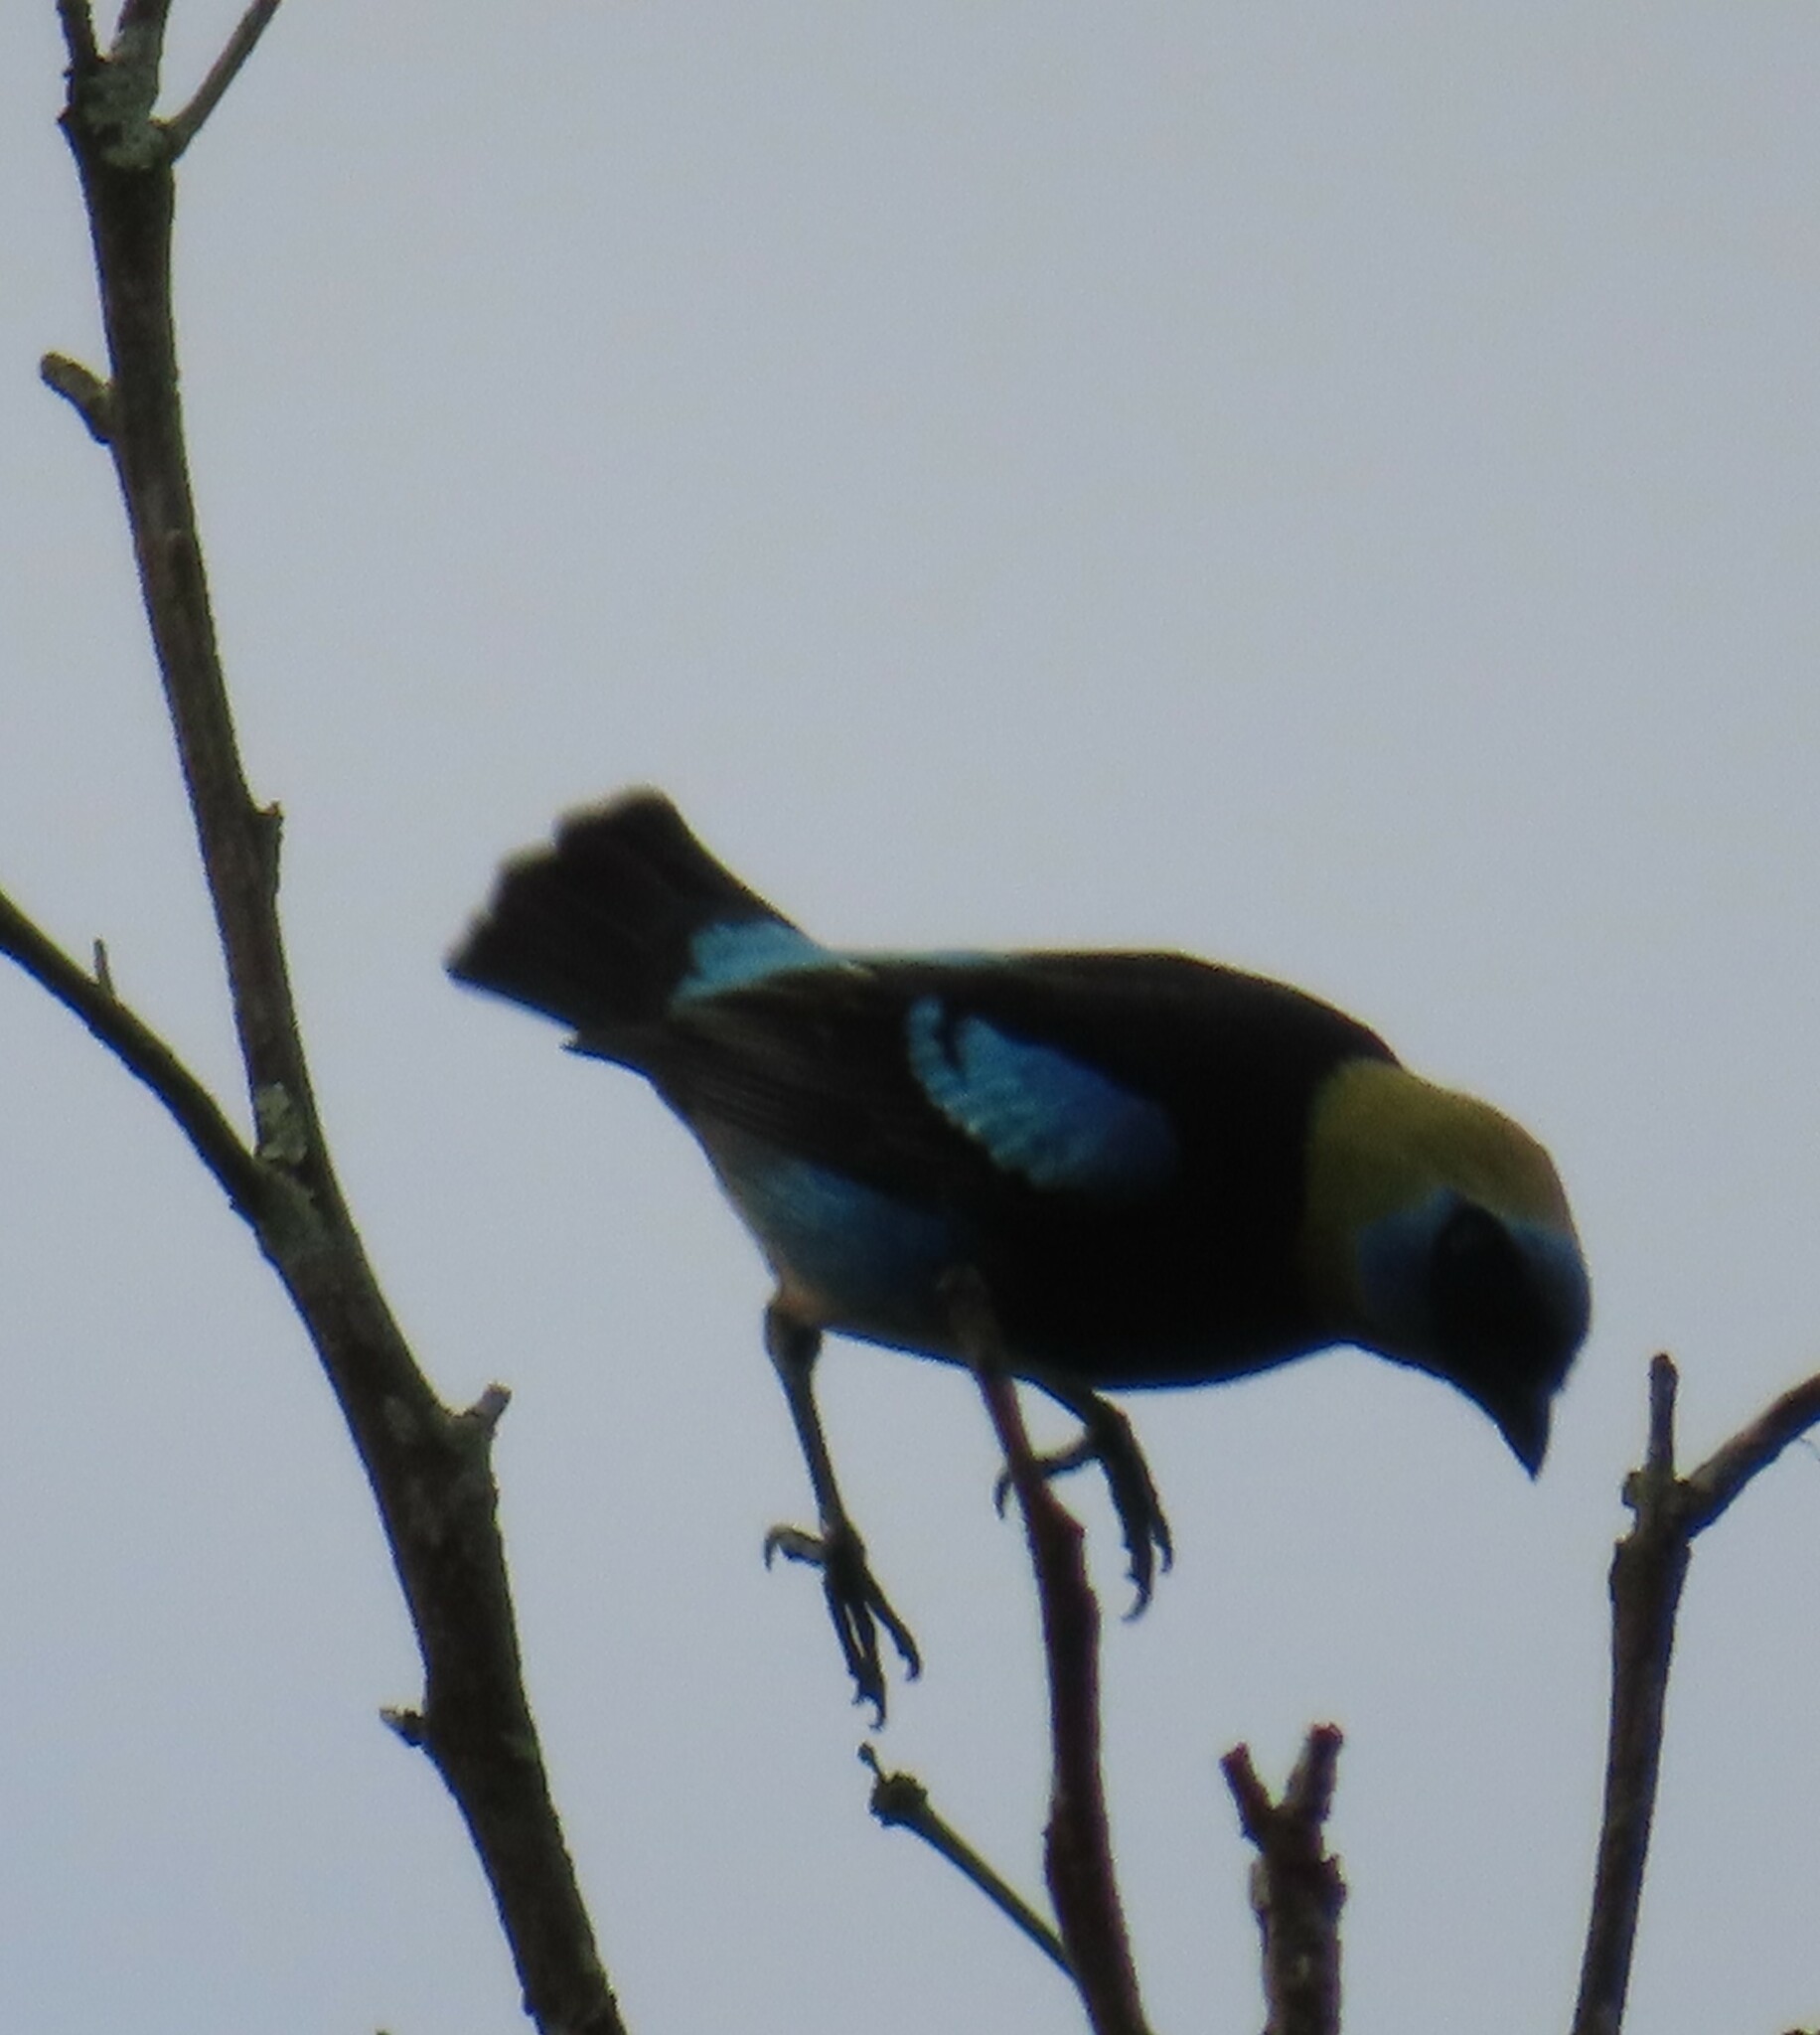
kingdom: Animalia
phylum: Chordata
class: Aves
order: Passeriformes
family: Thraupidae
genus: Stilpnia
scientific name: Stilpnia larvata
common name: Golden-hooded tanager
